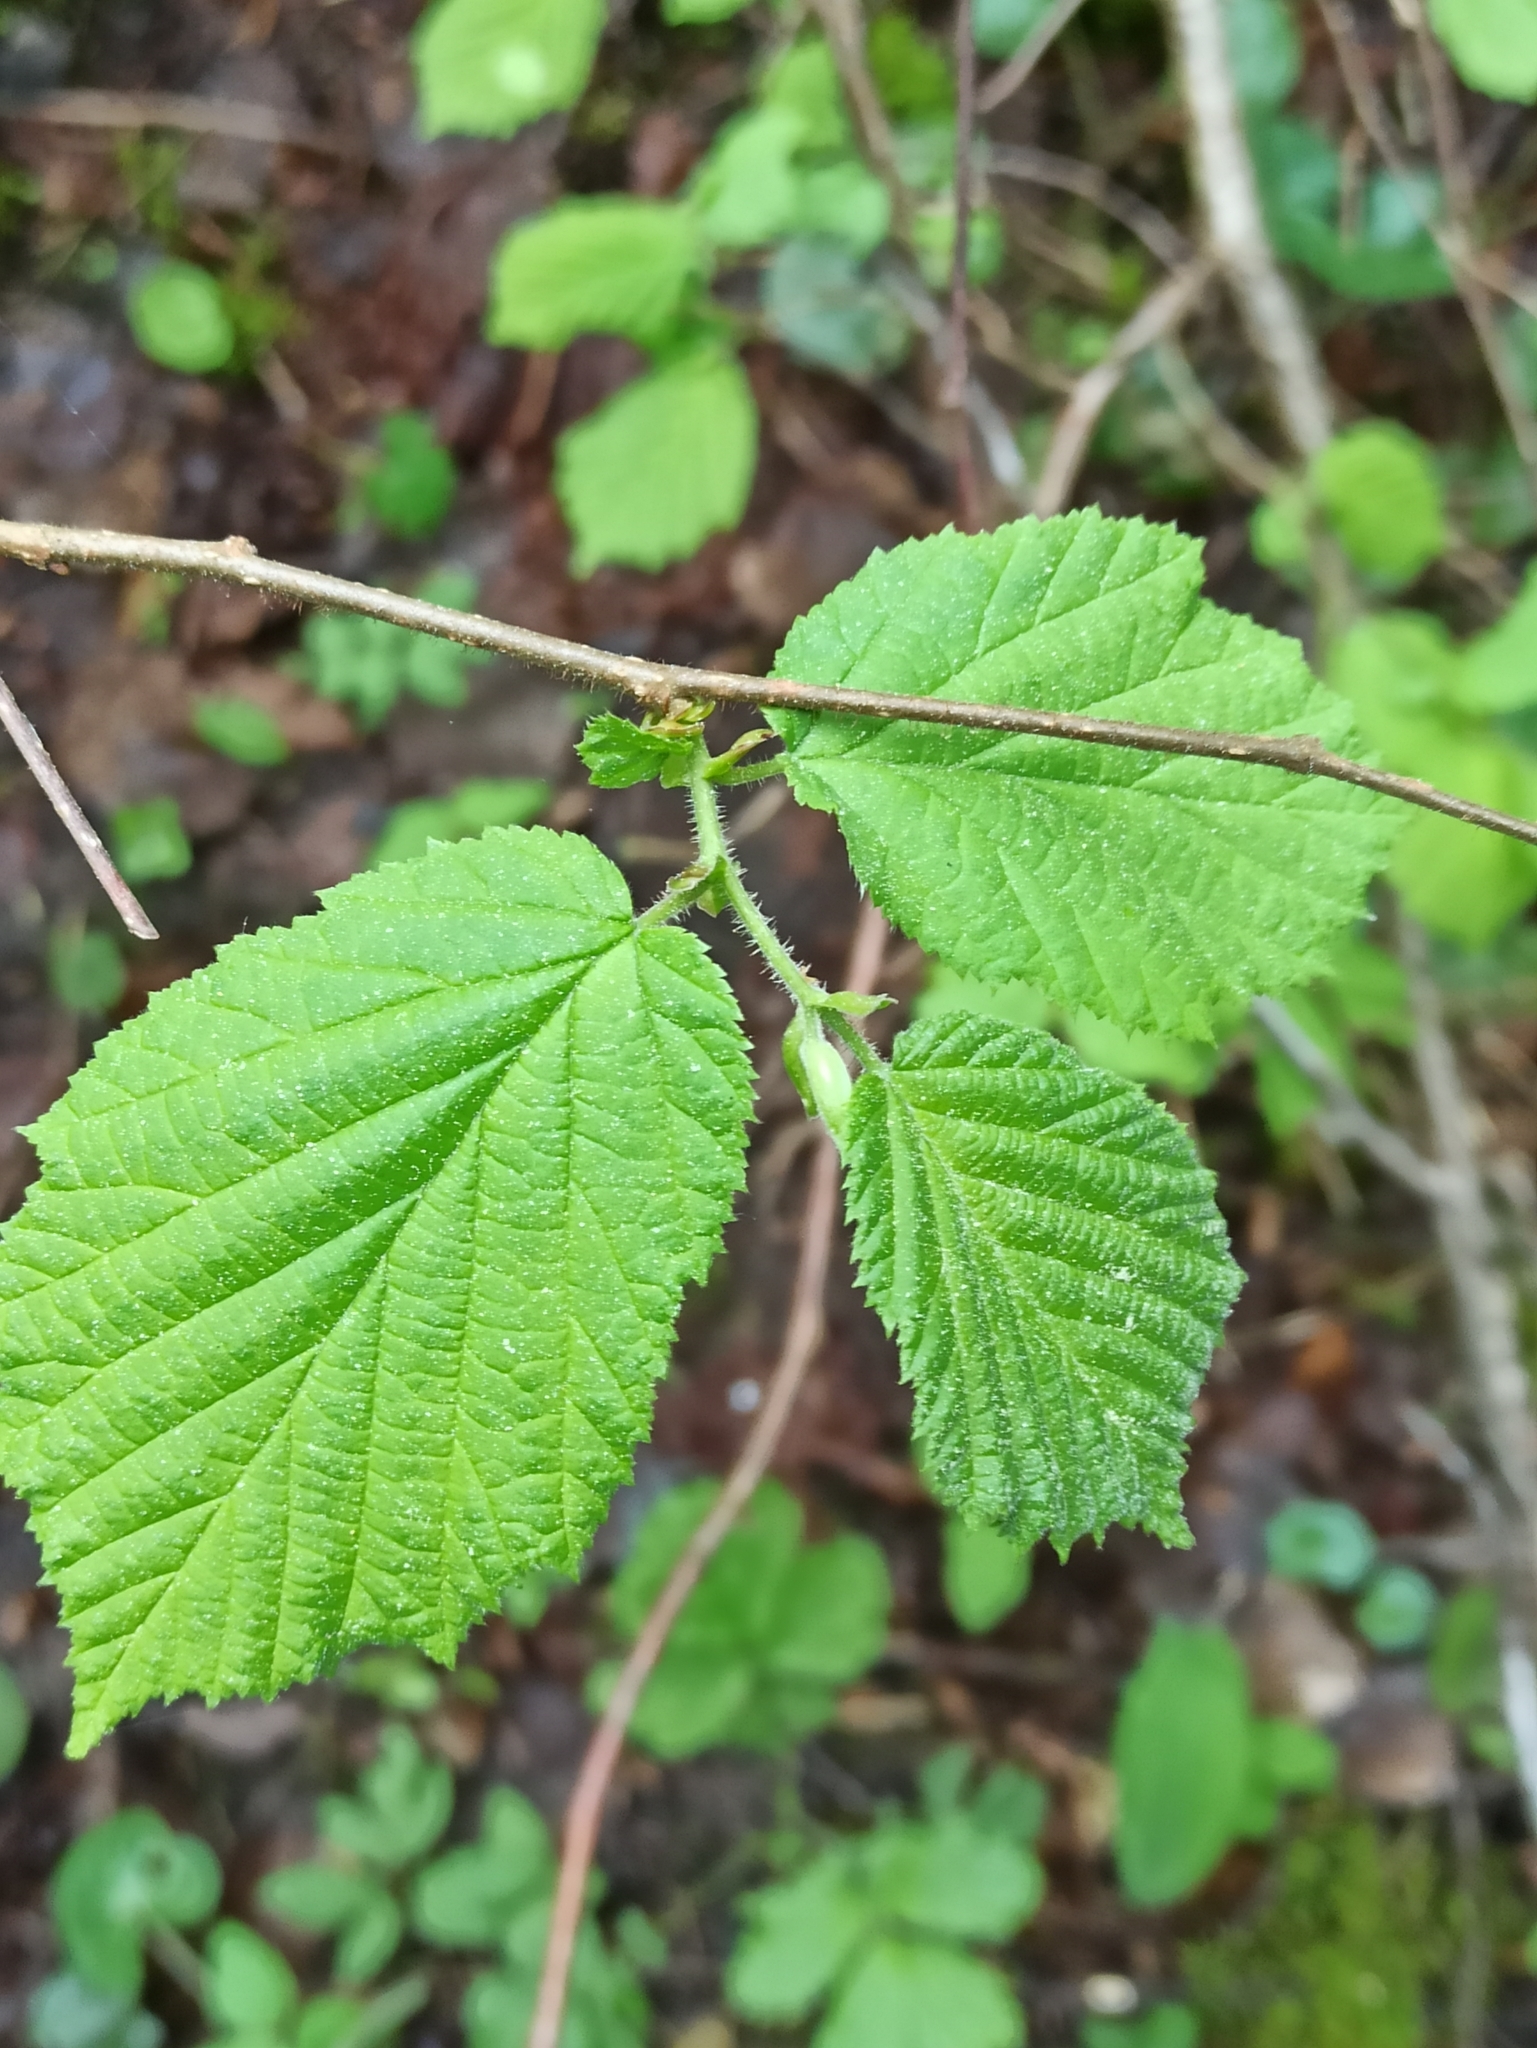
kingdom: Plantae
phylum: Tracheophyta
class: Magnoliopsida
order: Fagales
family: Betulaceae
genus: Corylus
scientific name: Corylus avellana
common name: European hazel
